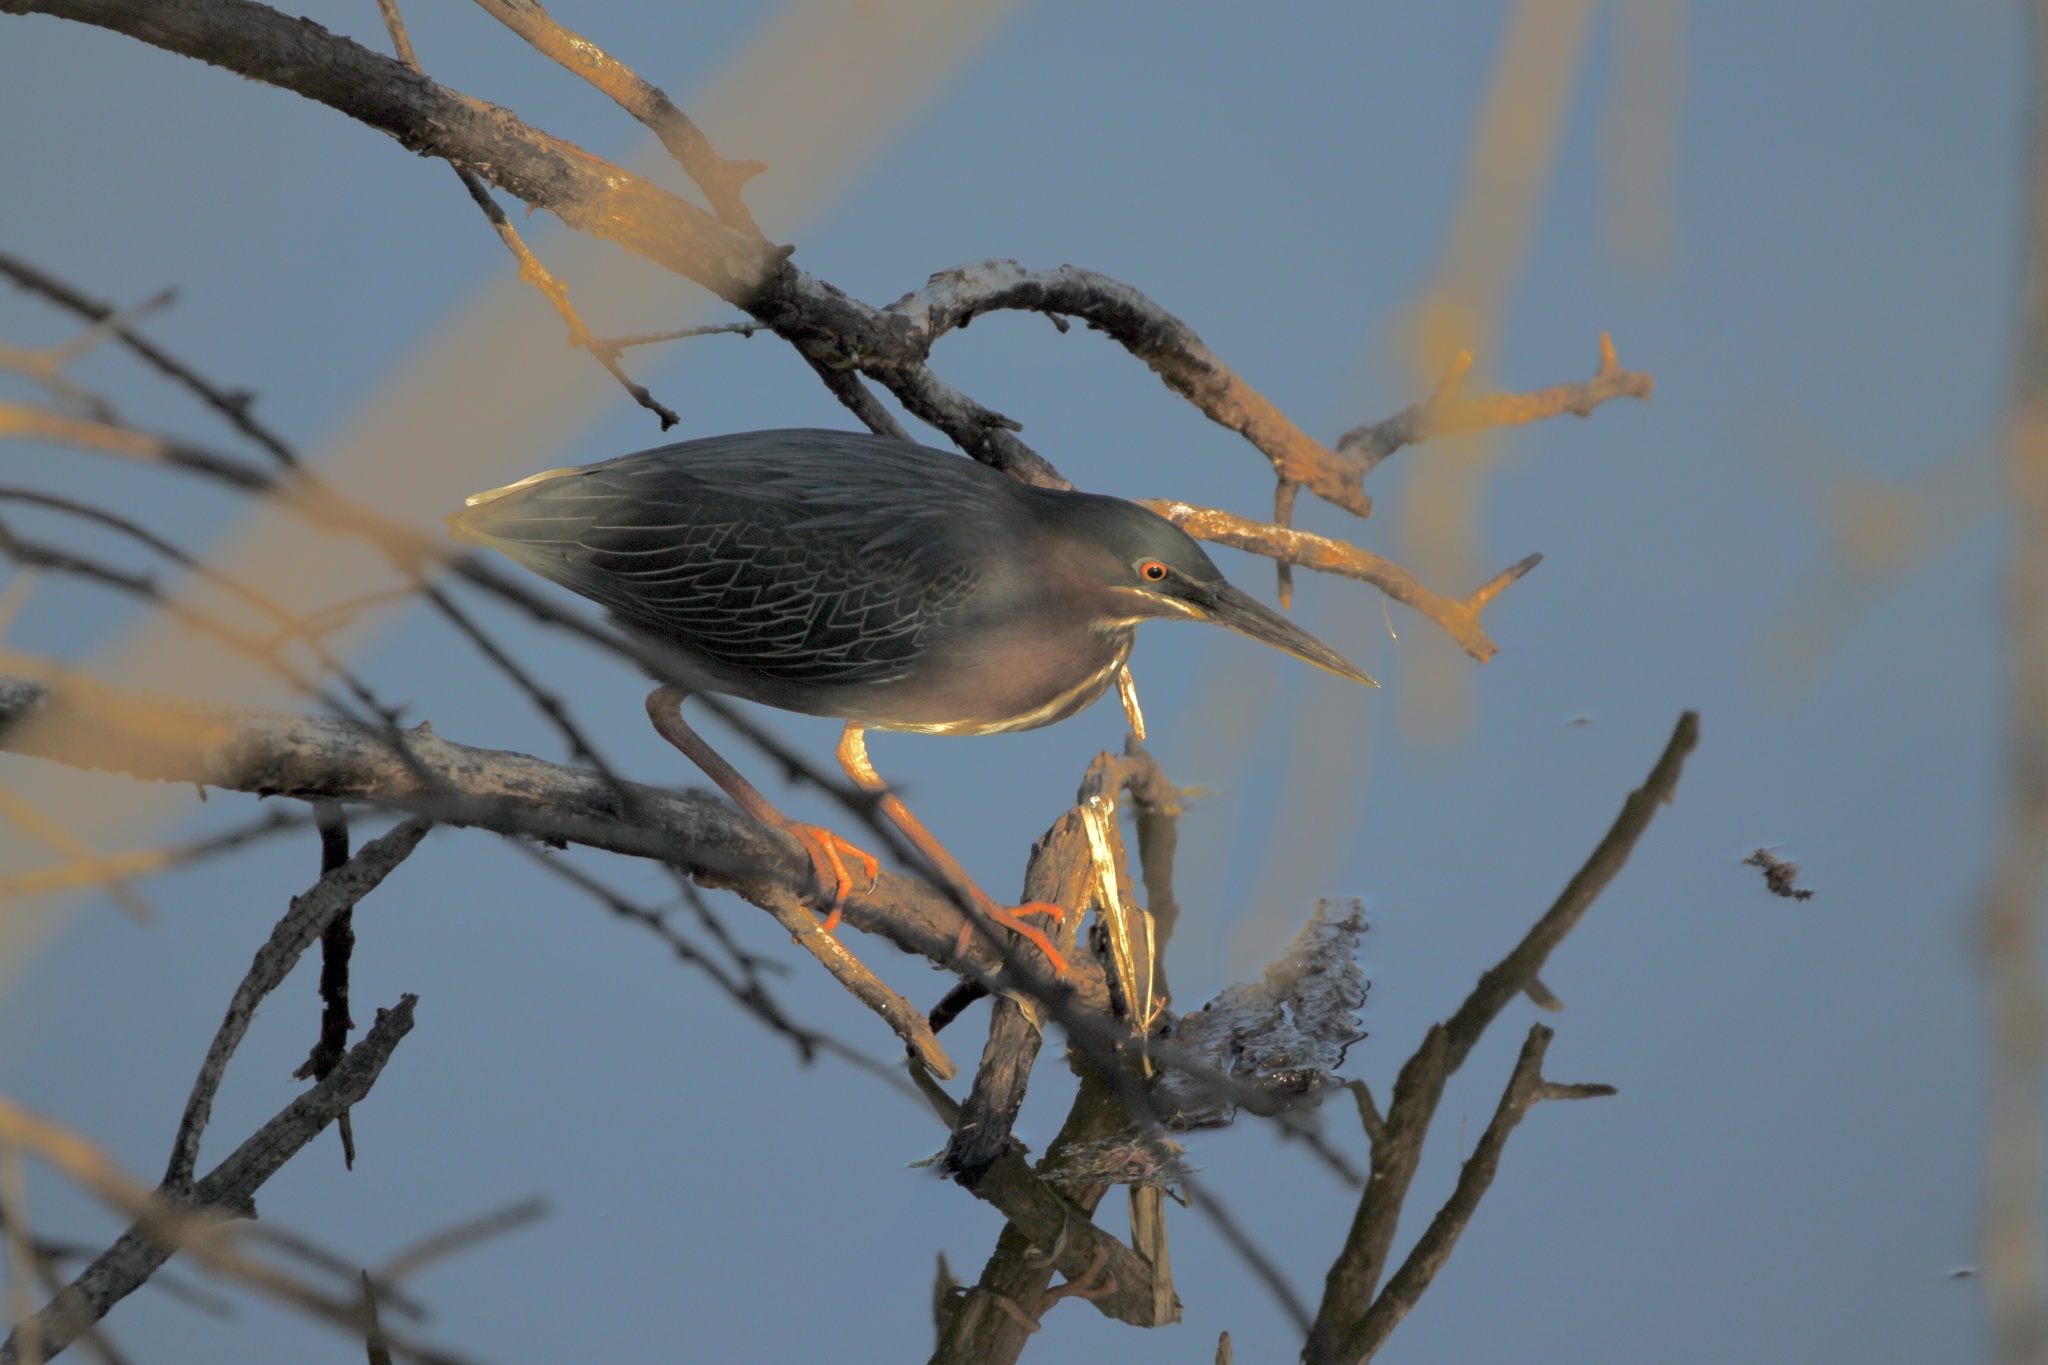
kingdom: Animalia
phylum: Chordata
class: Aves
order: Pelecaniformes
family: Ardeidae
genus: Butorides
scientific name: Butorides virescens
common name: Green heron
